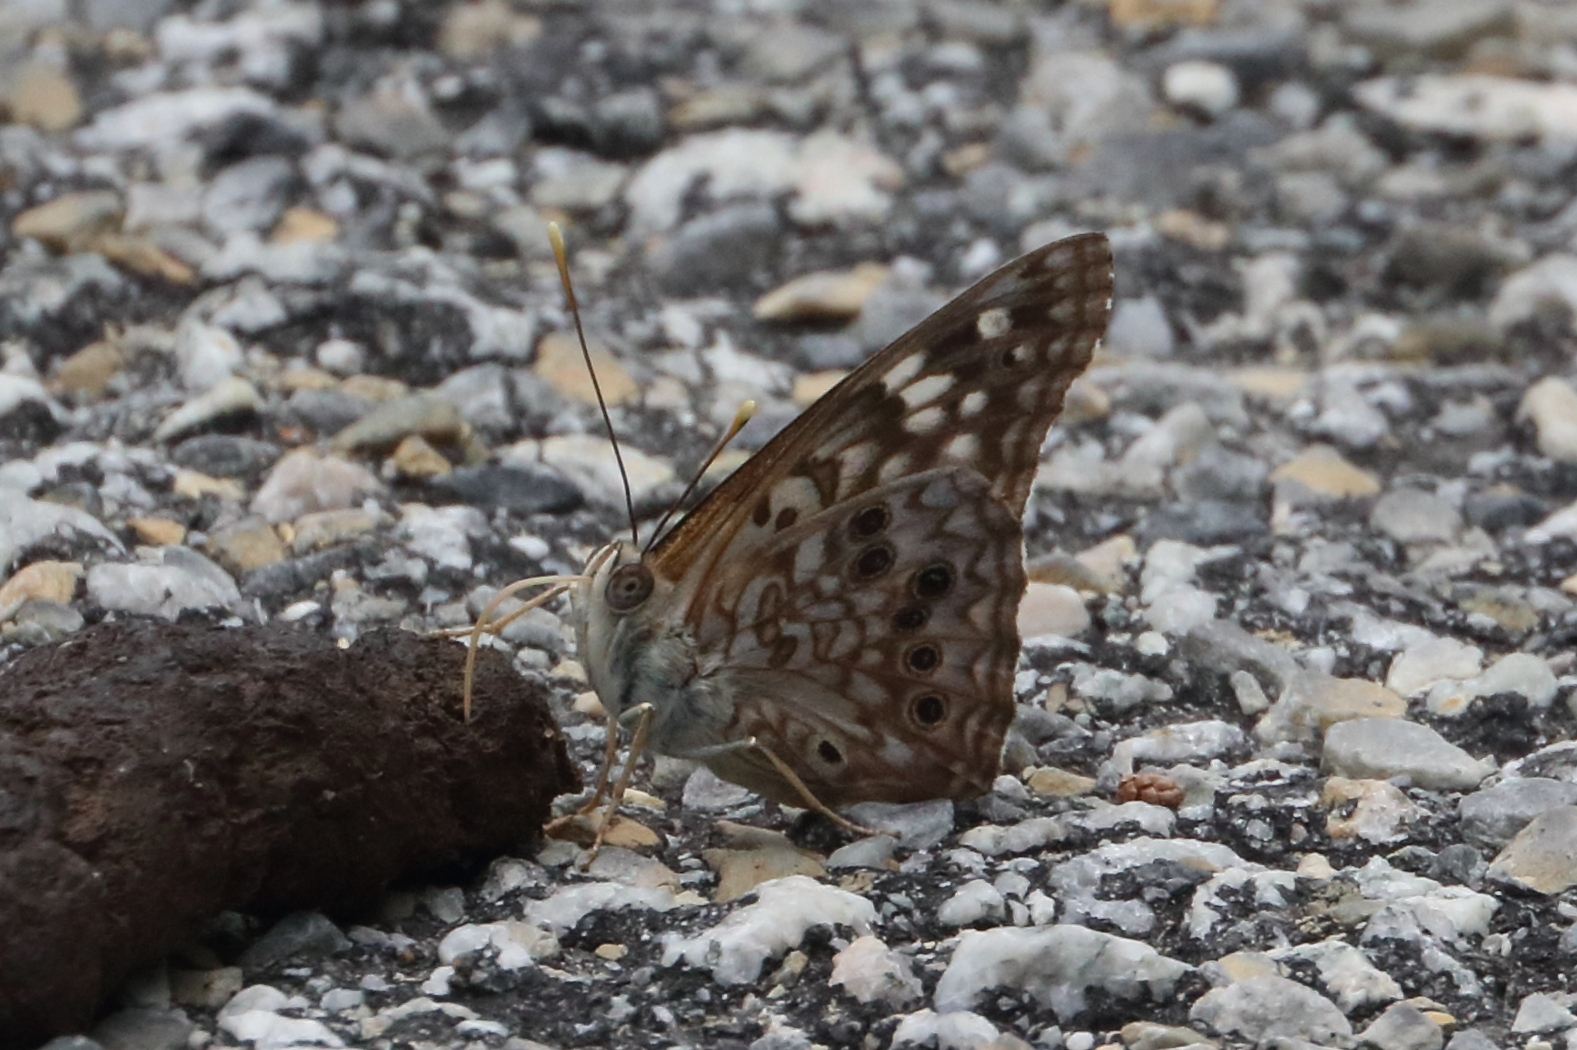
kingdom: Animalia
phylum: Arthropoda
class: Insecta
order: Lepidoptera
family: Nymphalidae
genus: Asterocampa
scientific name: Asterocampa celtis
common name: Hackberry emperor
